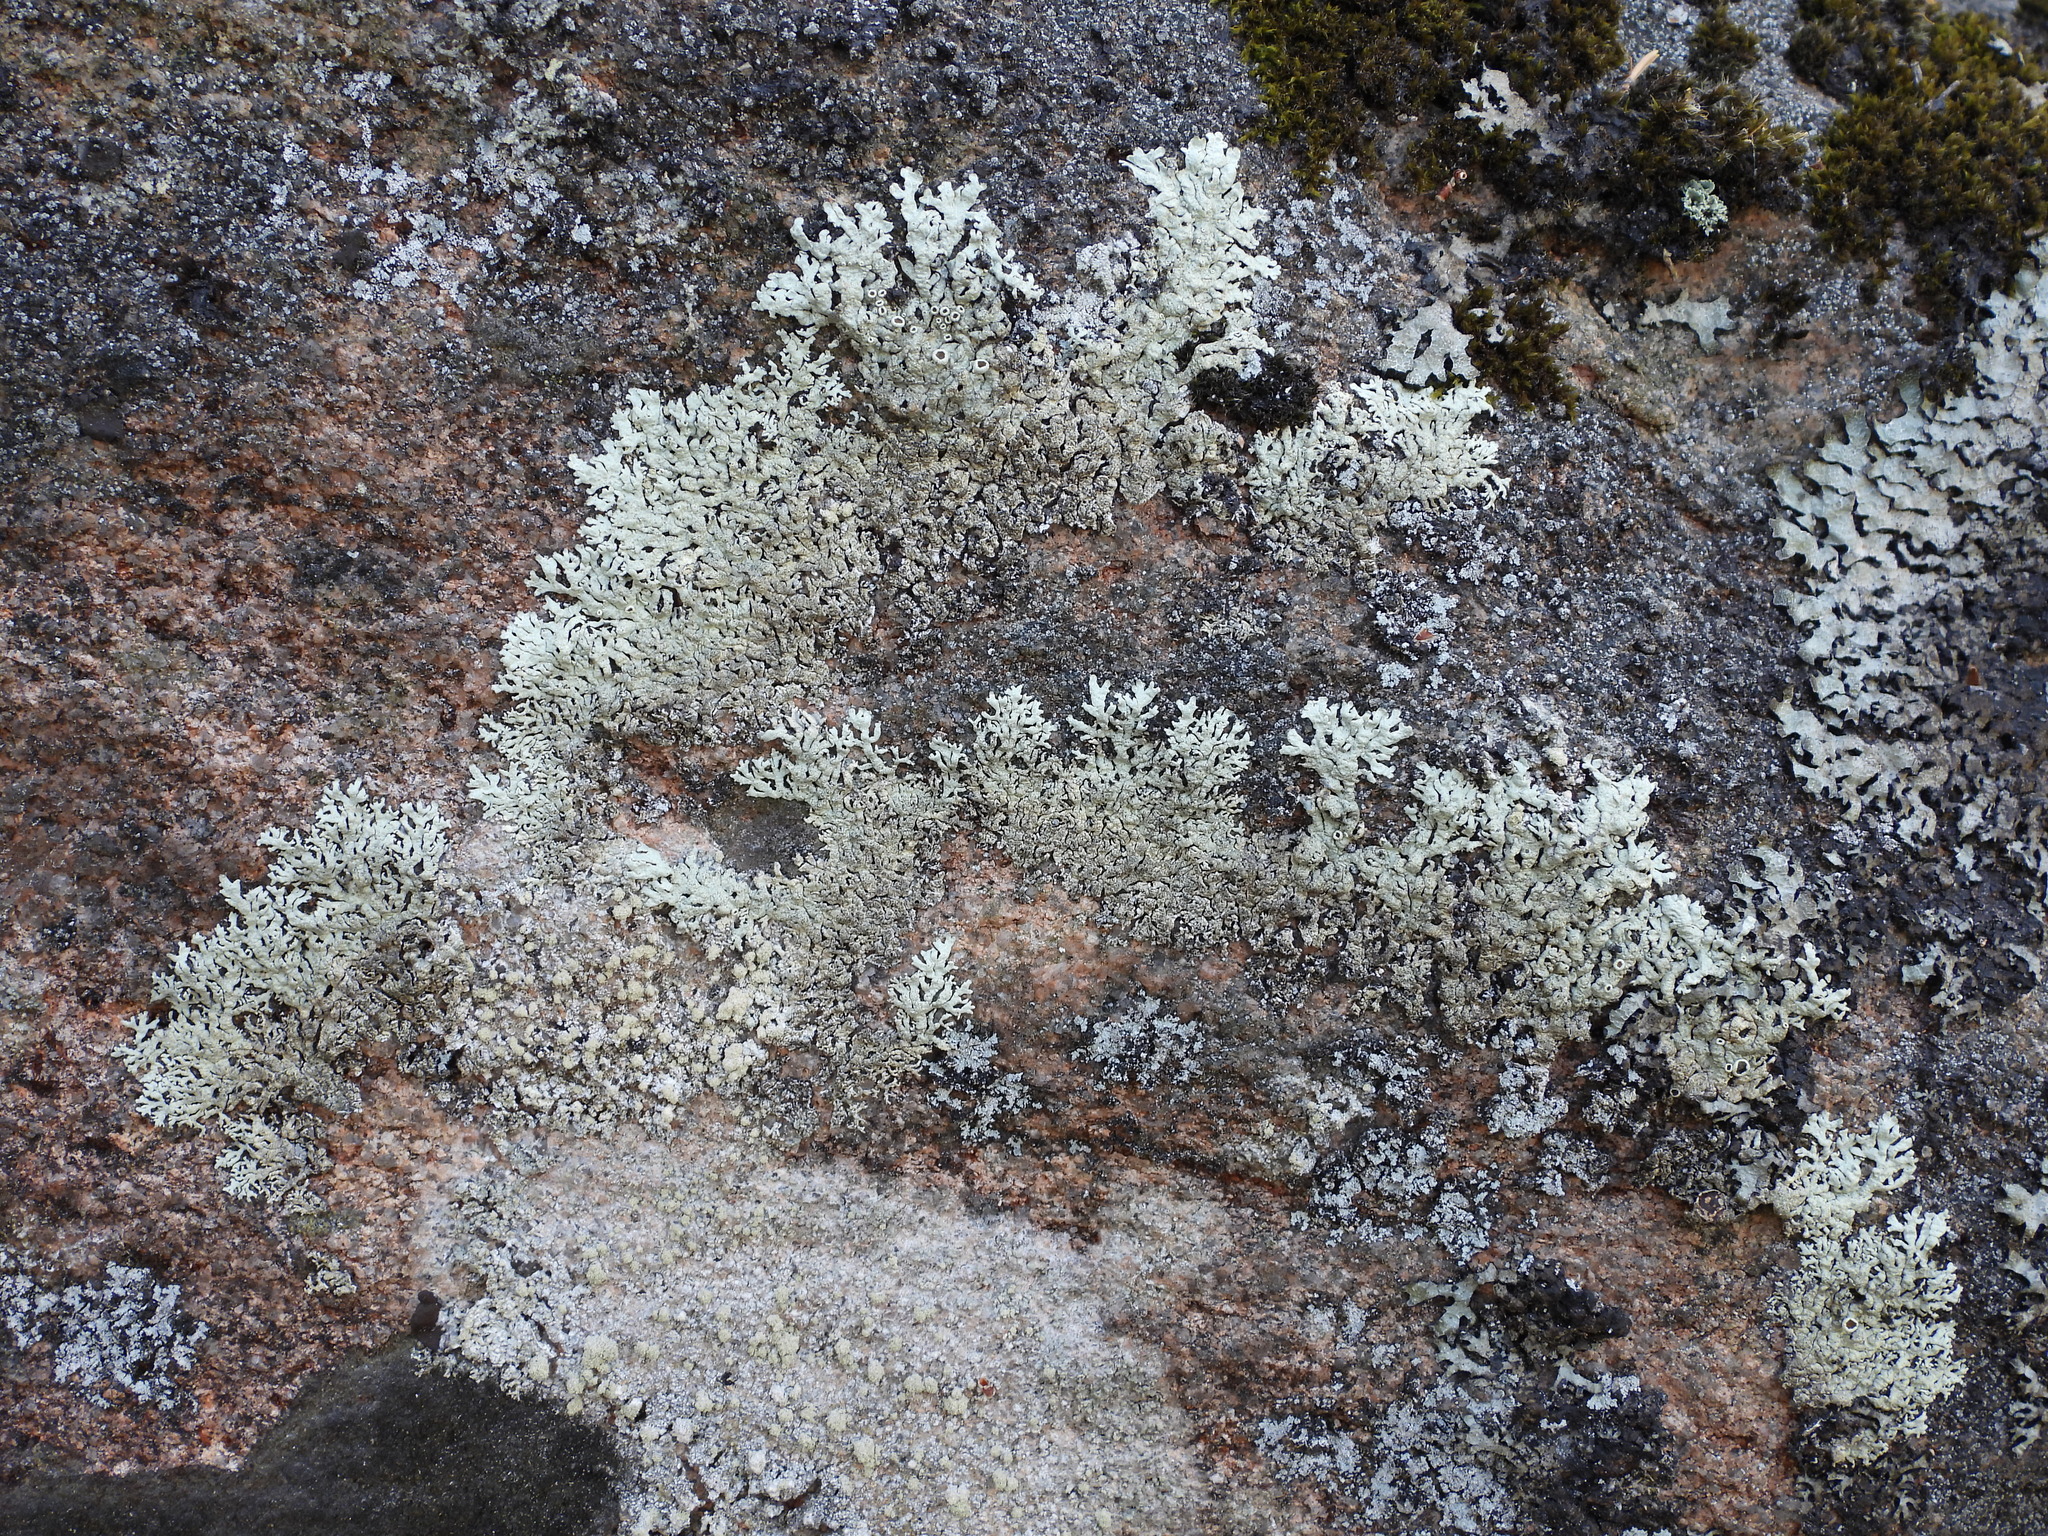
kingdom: Fungi
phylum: Ascomycota
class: Lecanoromycetes
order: Lecanorales
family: Parmeliaceae
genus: Arctoparmelia
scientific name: Arctoparmelia centrifuga
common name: Concentric ring lichen
